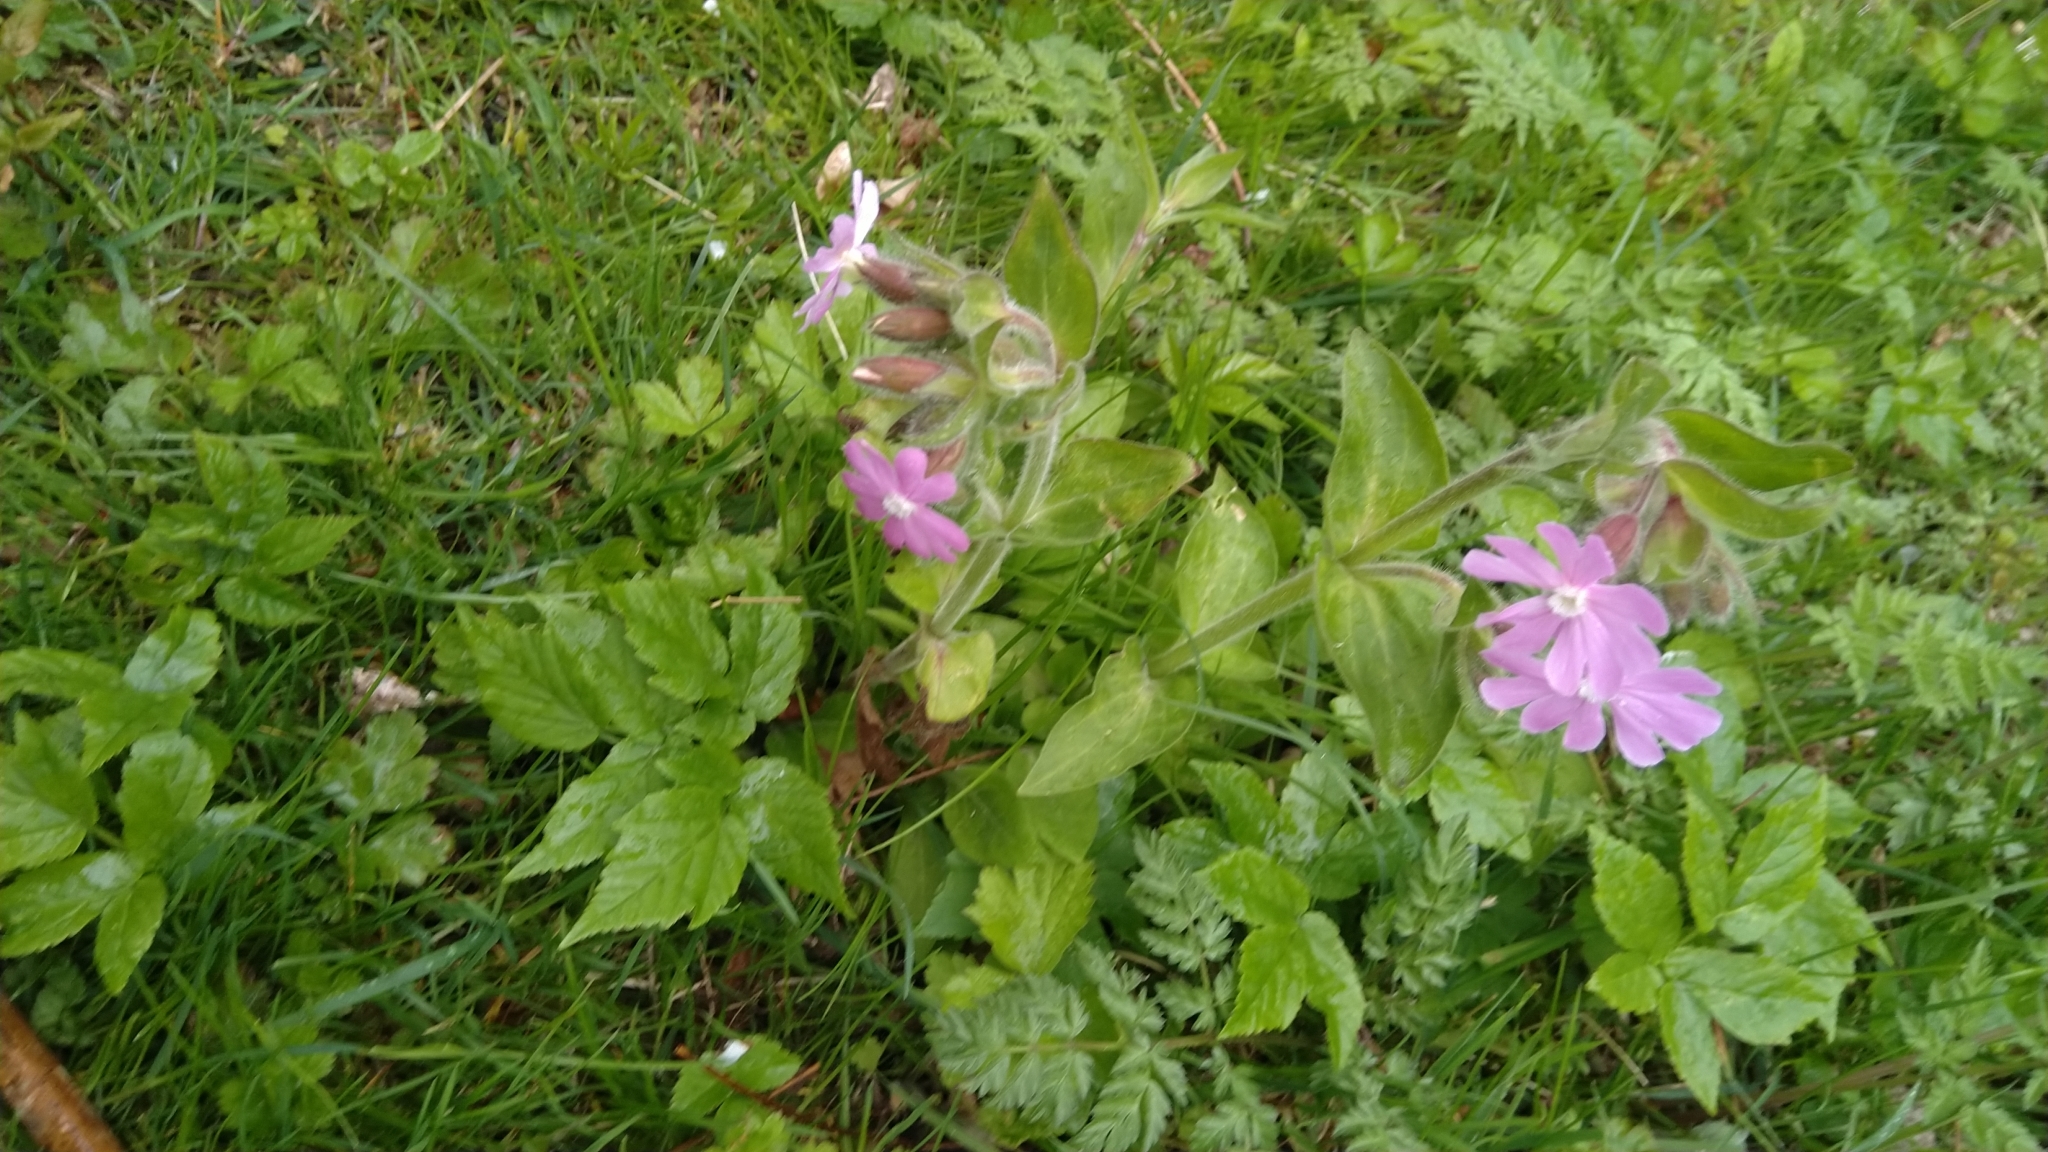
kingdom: Plantae
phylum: Tracheophyta
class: Magnoliopsida
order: Caryophyllales
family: Caryophyllaceae
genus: Silene
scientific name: Silene dioica
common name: Red campion
